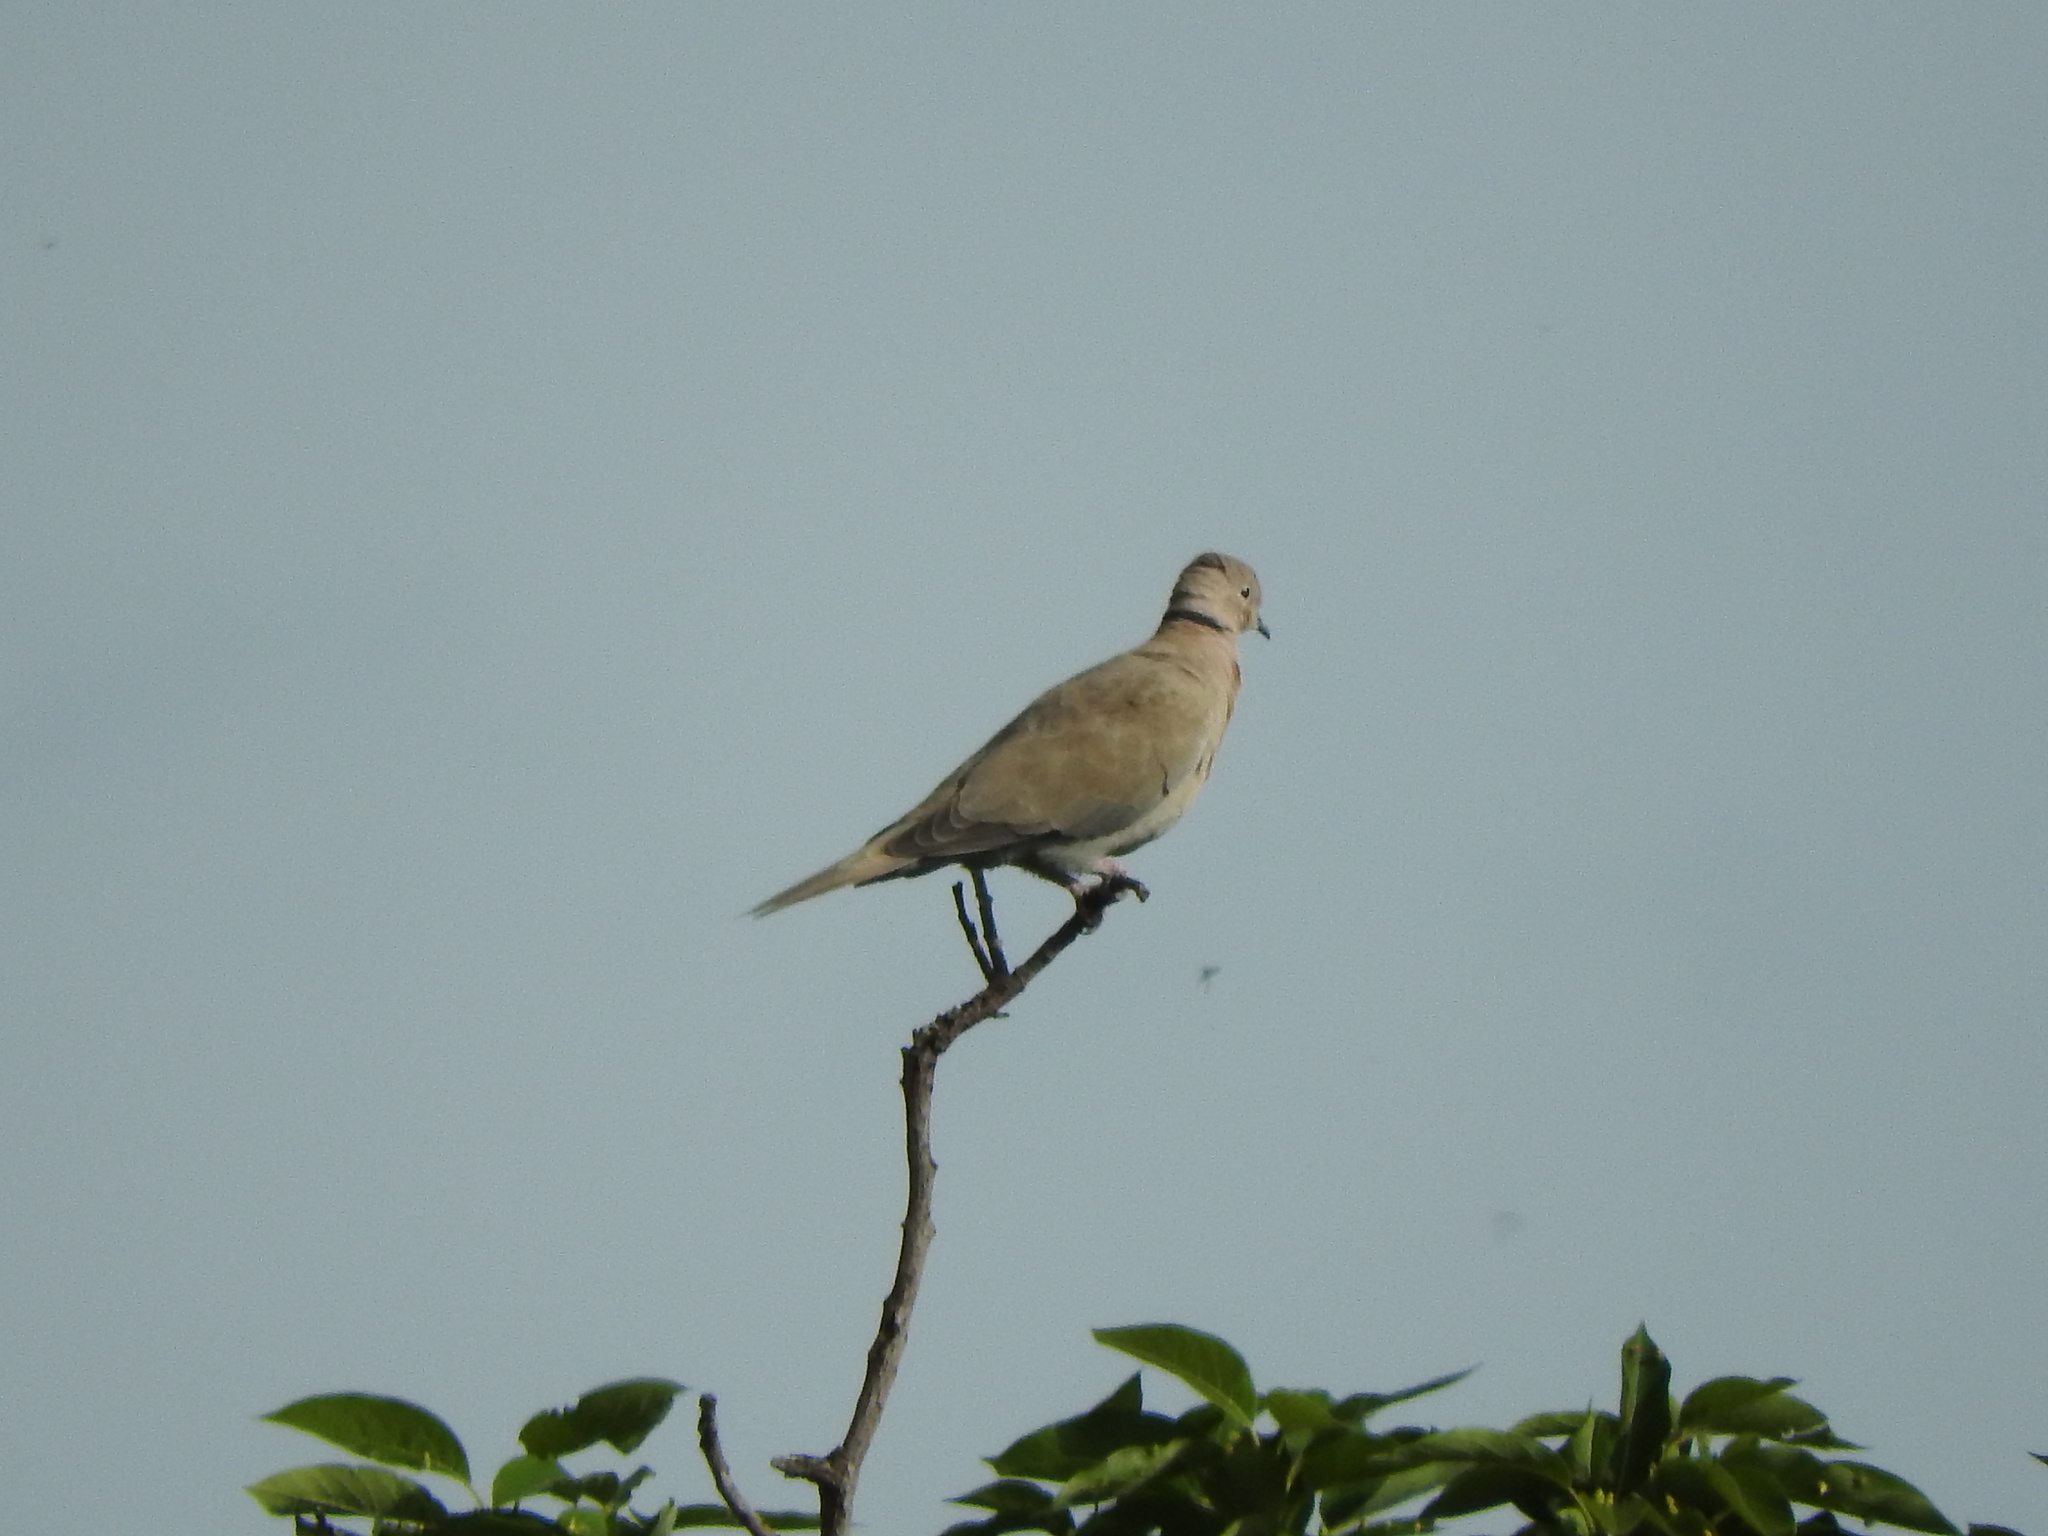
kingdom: Animalia
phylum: Chordata
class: Aves
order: Columbiformes
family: Columbidae
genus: Streptopelia
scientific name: Streptopelia decaocto
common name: Eurasian collared dove
